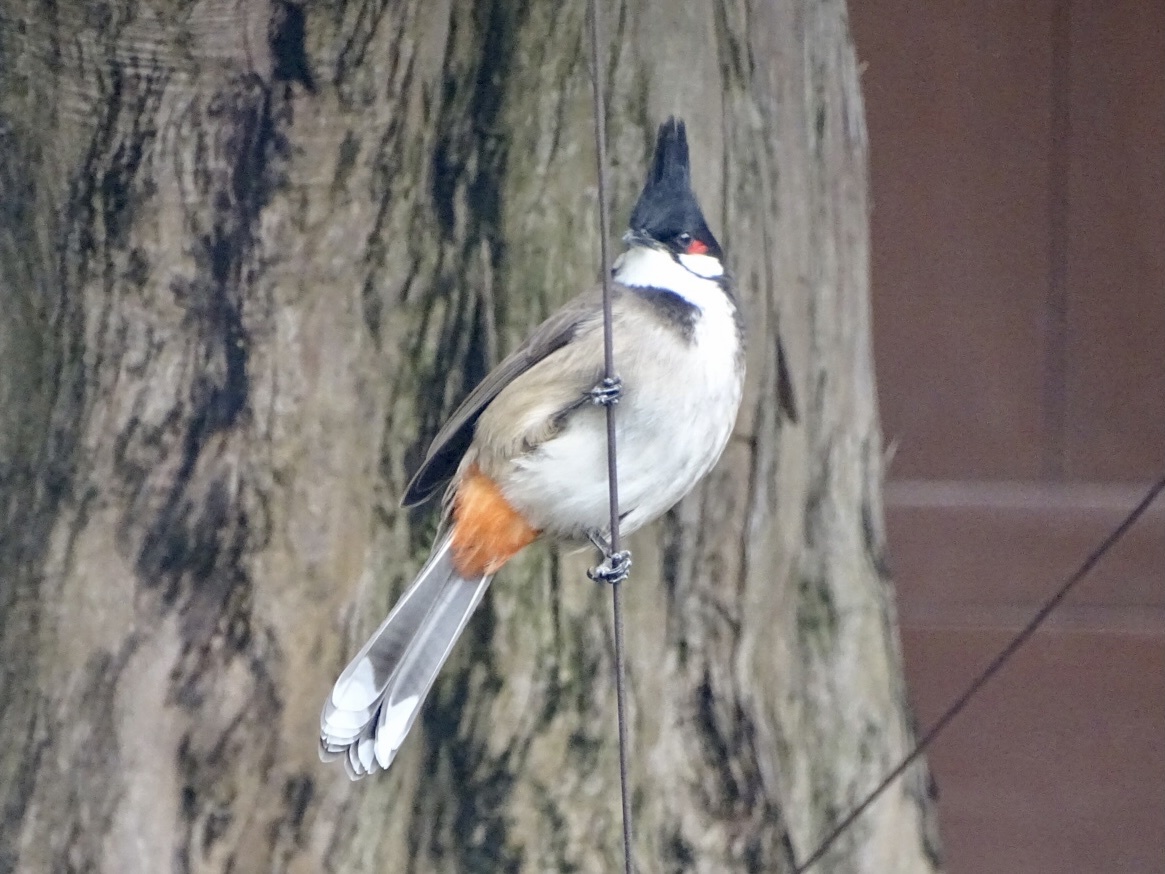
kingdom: Animalia
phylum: Chordata
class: Aves
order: Passeriformes
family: Pycnonotidae
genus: Pycnonotus
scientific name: Pycnonotus jocosus
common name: Red-whiskered bulbul
